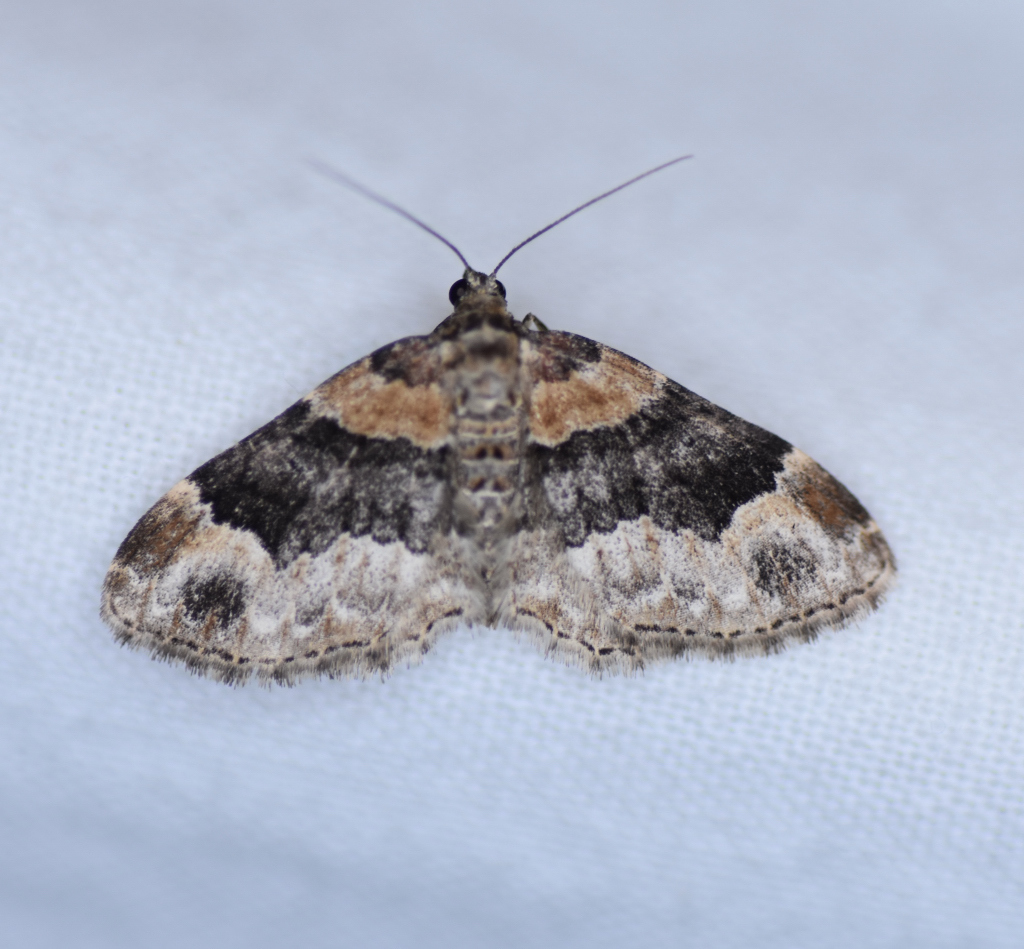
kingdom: Animalia
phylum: Arthropoda
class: Insecta
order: Lepidoptera
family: Geometridae
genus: Xanthorhoe
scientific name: Xanthorhoe ferrugata
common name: Dark-barred twin-spot carpet
